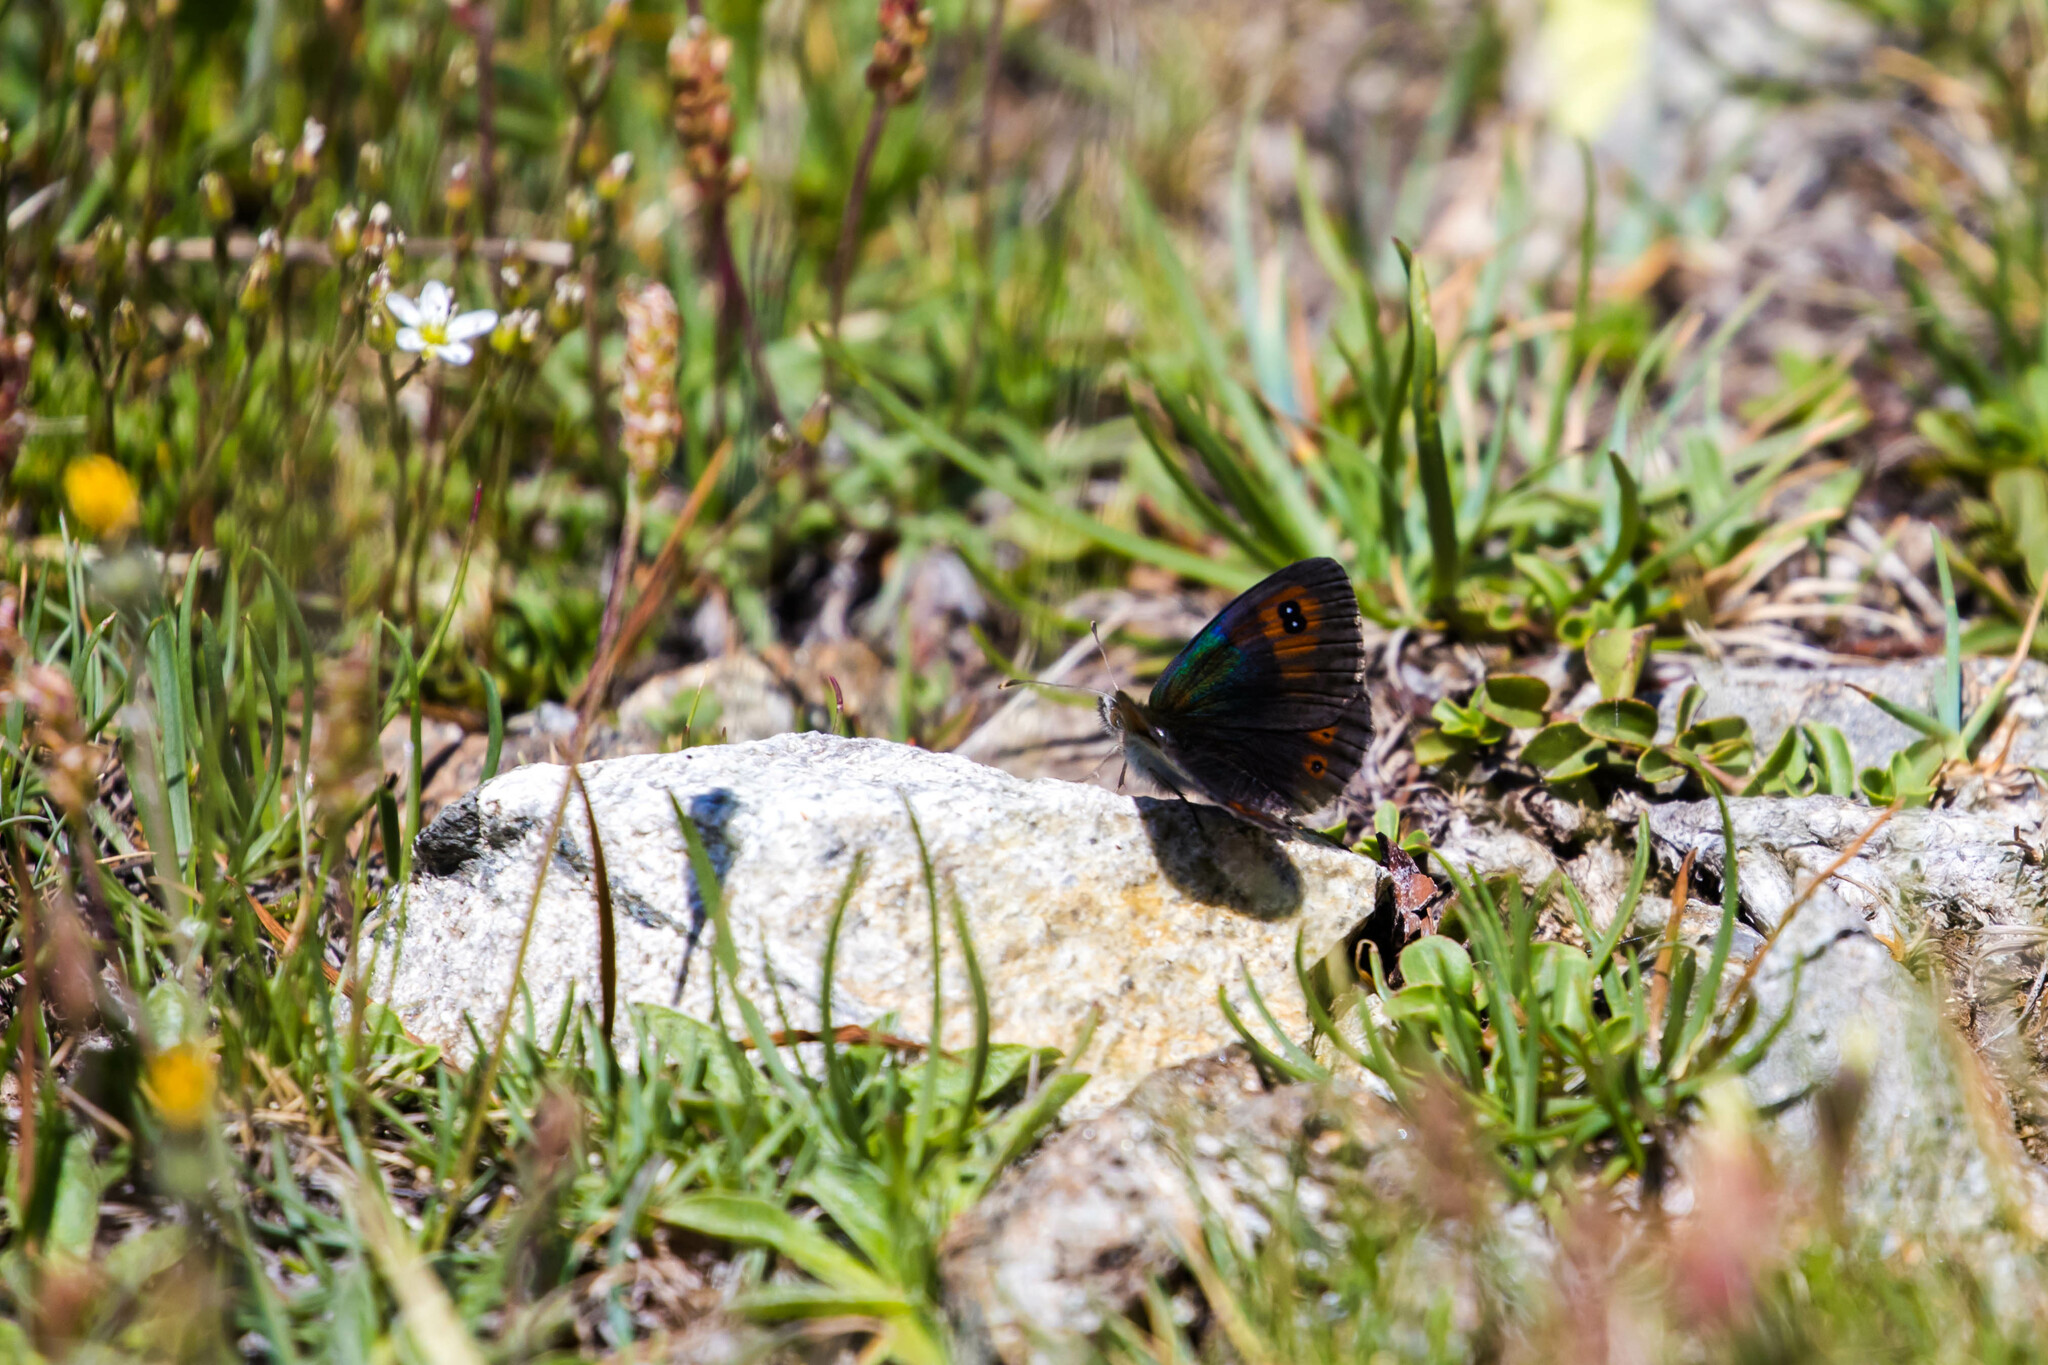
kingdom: Animalia
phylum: Arthropoda
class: Insecta
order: Lepidoptera
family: Nymphalidae
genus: Erebia
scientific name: Erebia cassioides
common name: Common brassy ringlet
